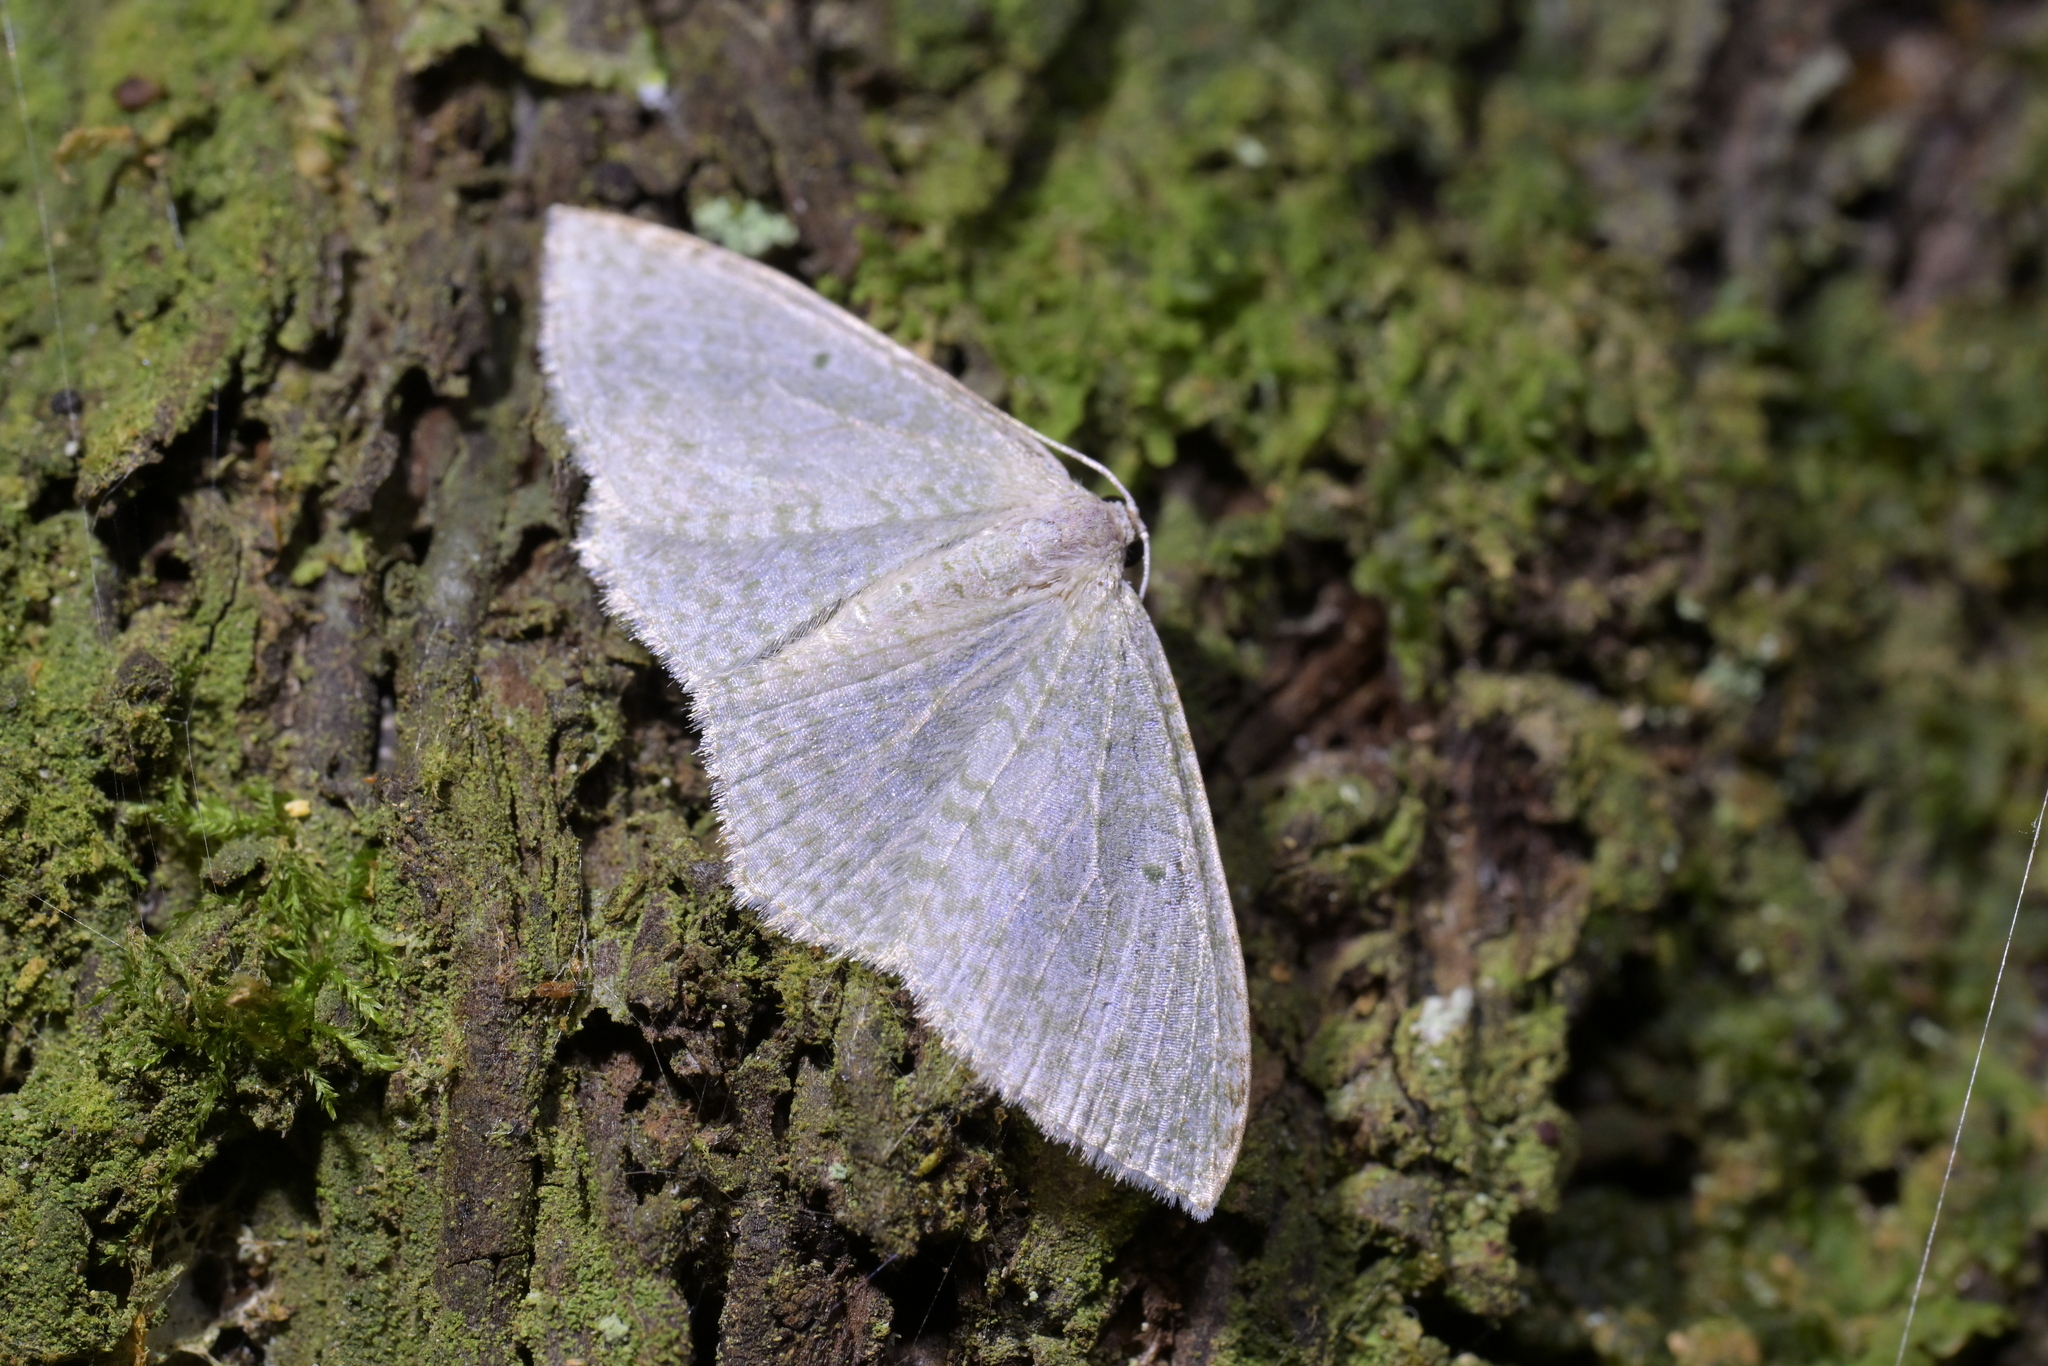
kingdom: Animalia
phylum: Arthropoda
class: Insecta
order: Lepidoptera
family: Geometridae
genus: Poecilasthena
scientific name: Poecilasthena pulchraria
